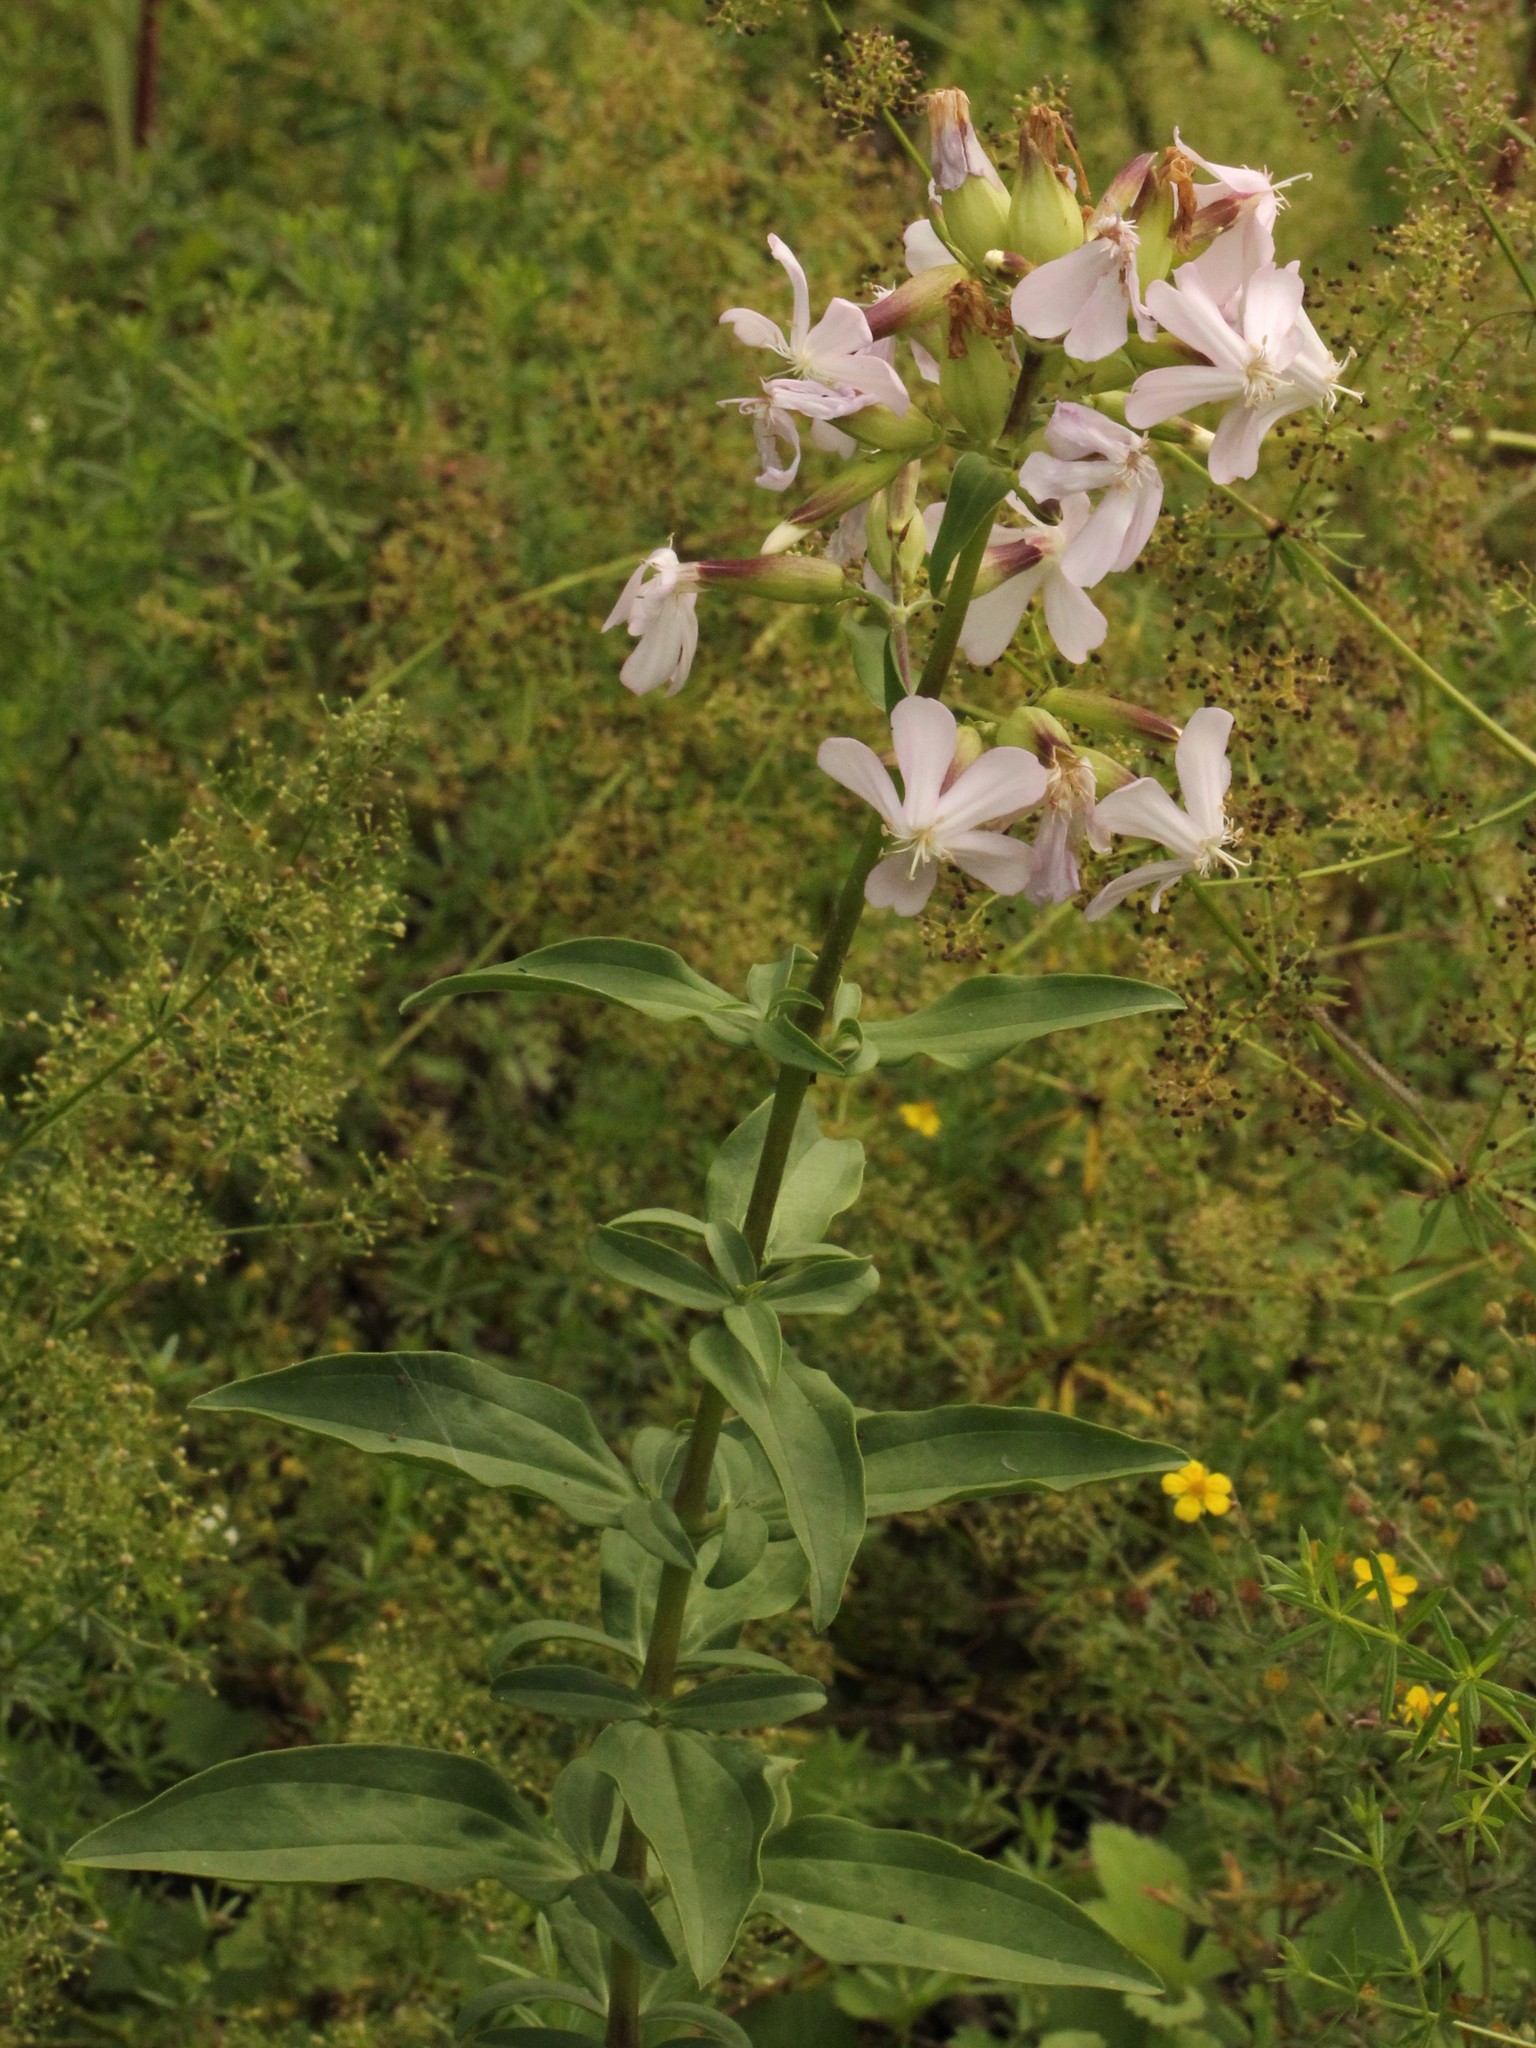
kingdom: Plantae
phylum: Tracheophyta
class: Magnoliopsida
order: Caryophyllales
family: Caryophyllaceae
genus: Saponaria
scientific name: Saponaria officinalis
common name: Soapwort
